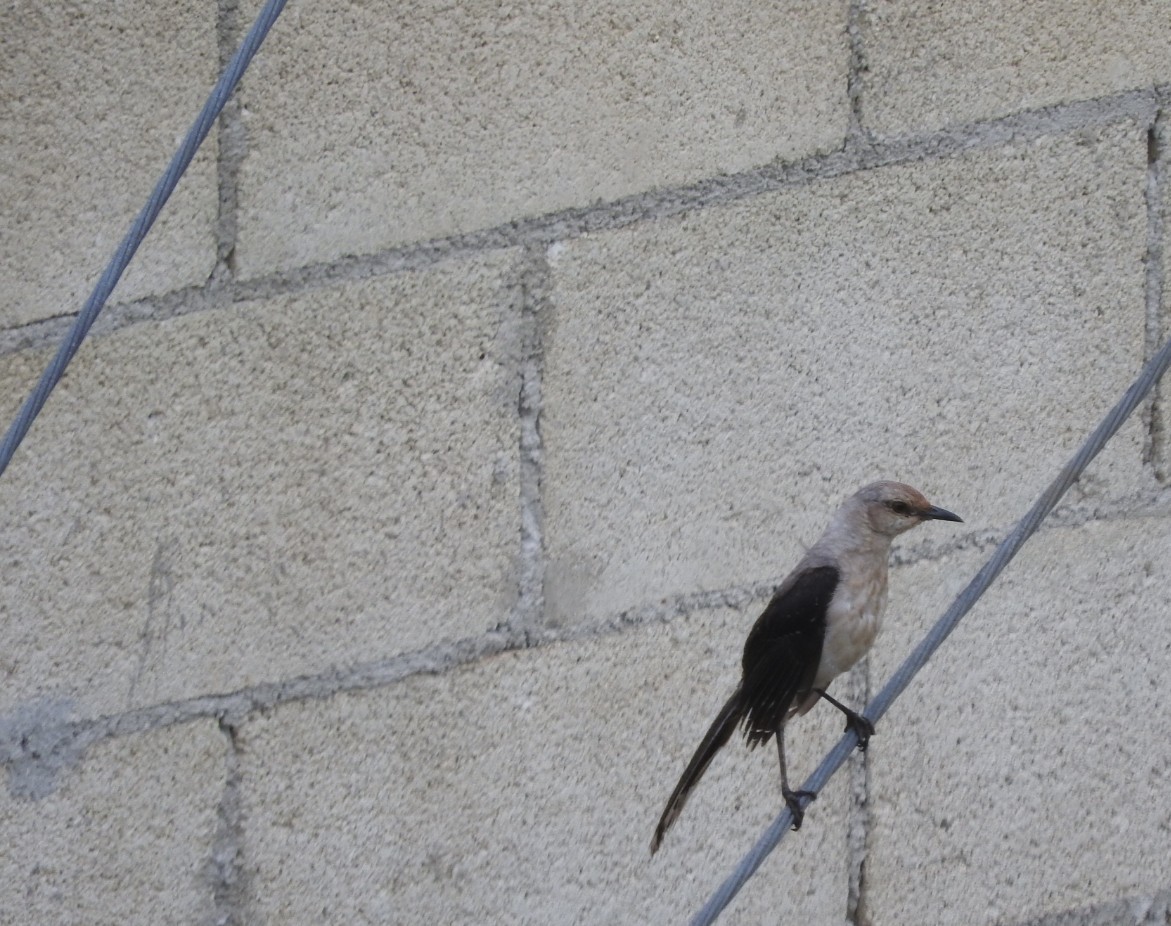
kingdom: Animalia
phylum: Chordata
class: Aves
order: Passeriformes
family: Mimidae
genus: Mimus
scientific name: Mimus gilvus
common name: Tropical mockingbird
